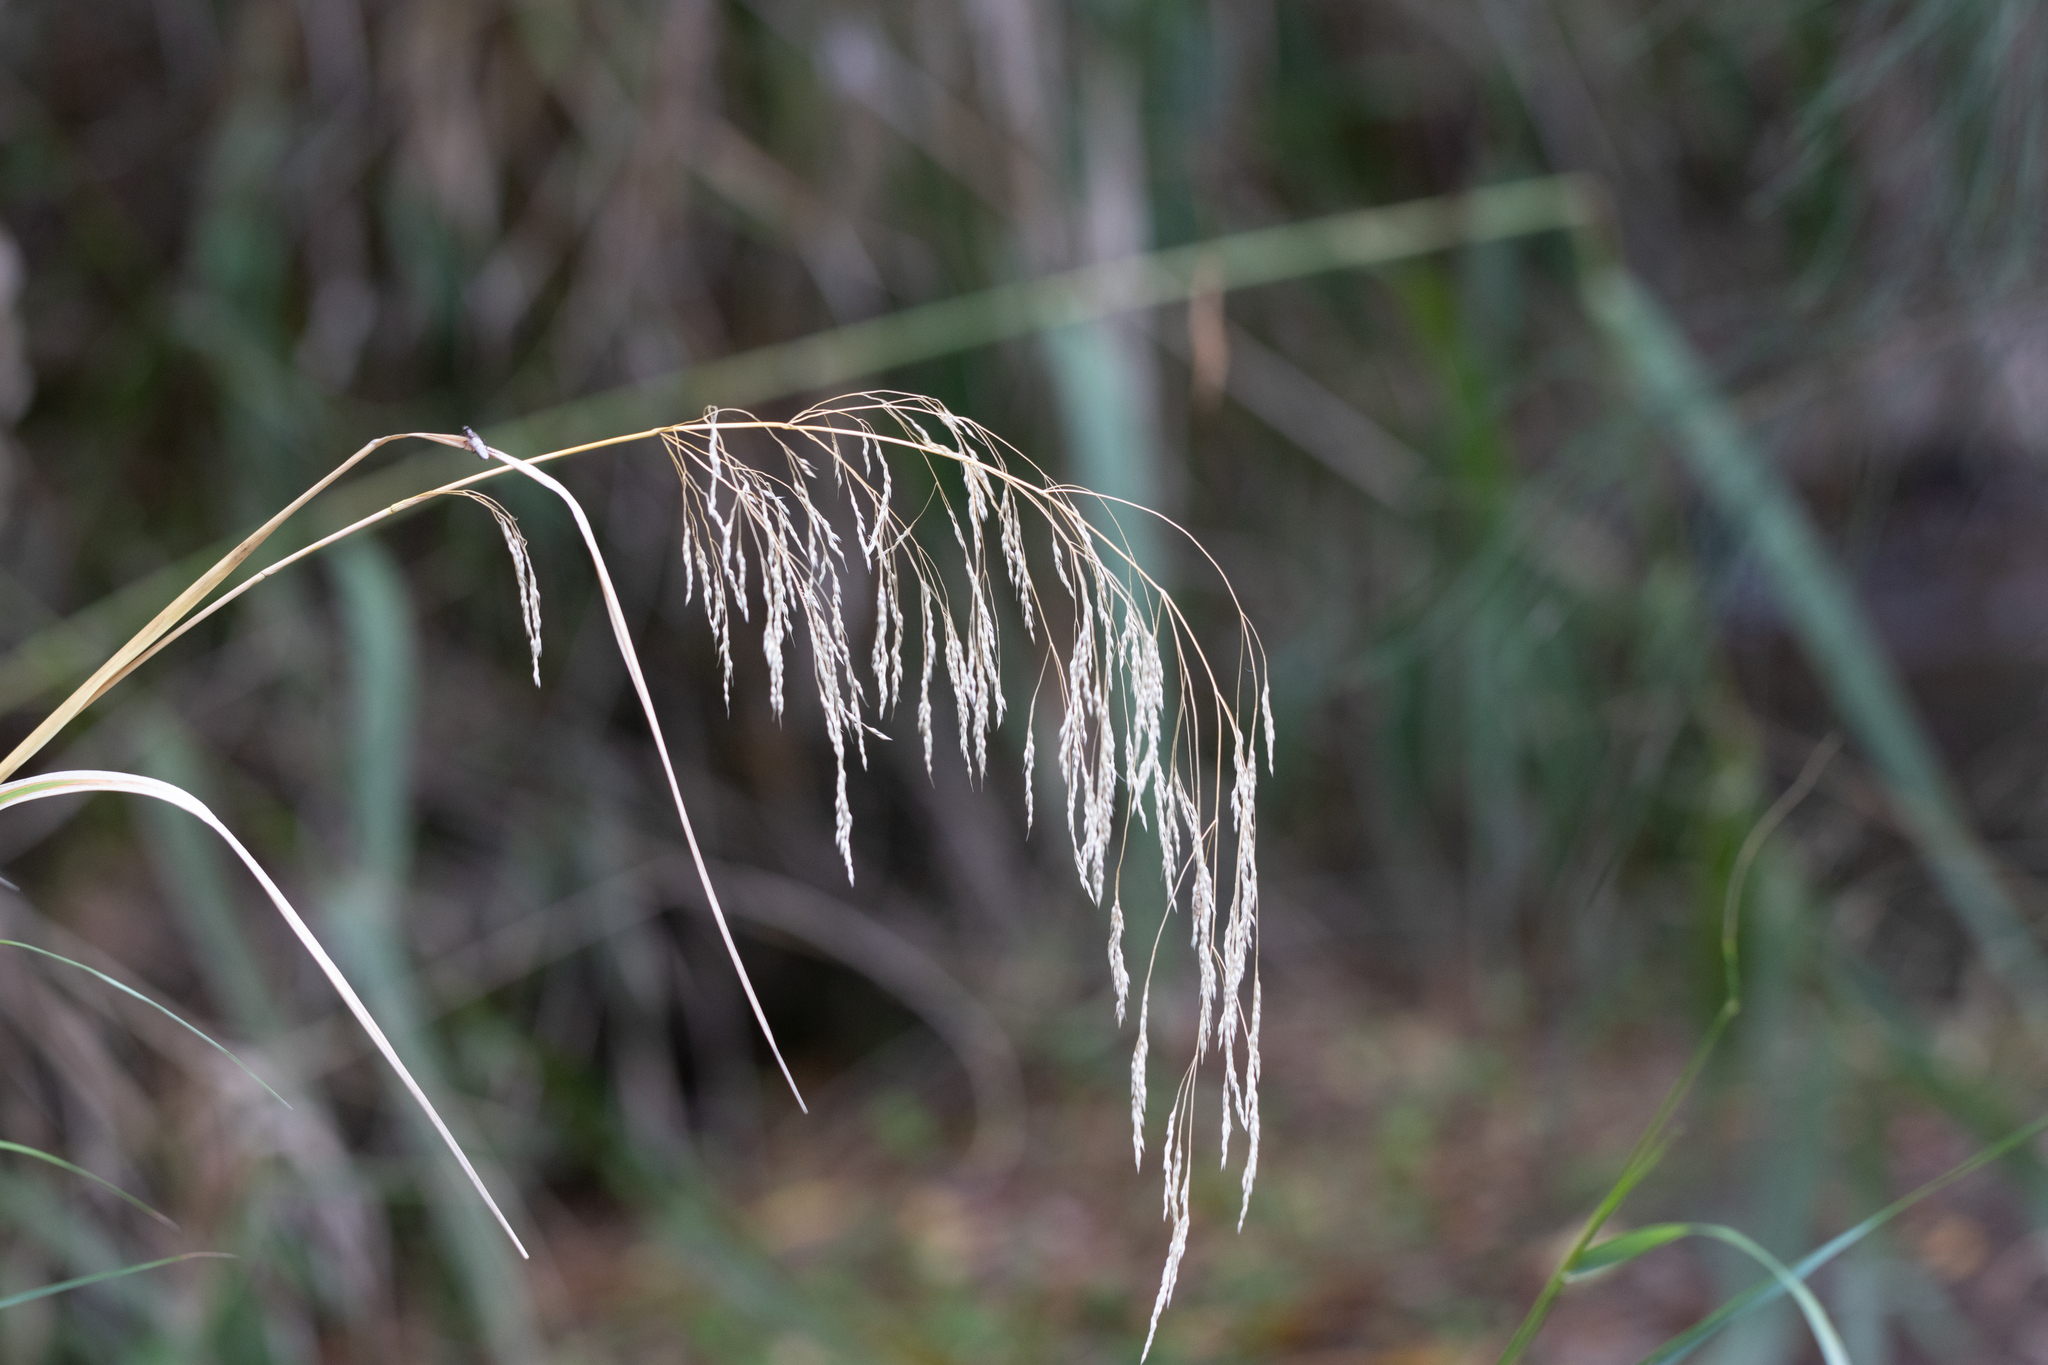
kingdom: Plantae
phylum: Tracheophyta
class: Liliopsida
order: Poales
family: Poaceae
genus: Oloptum
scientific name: Oloptum miliaceum
